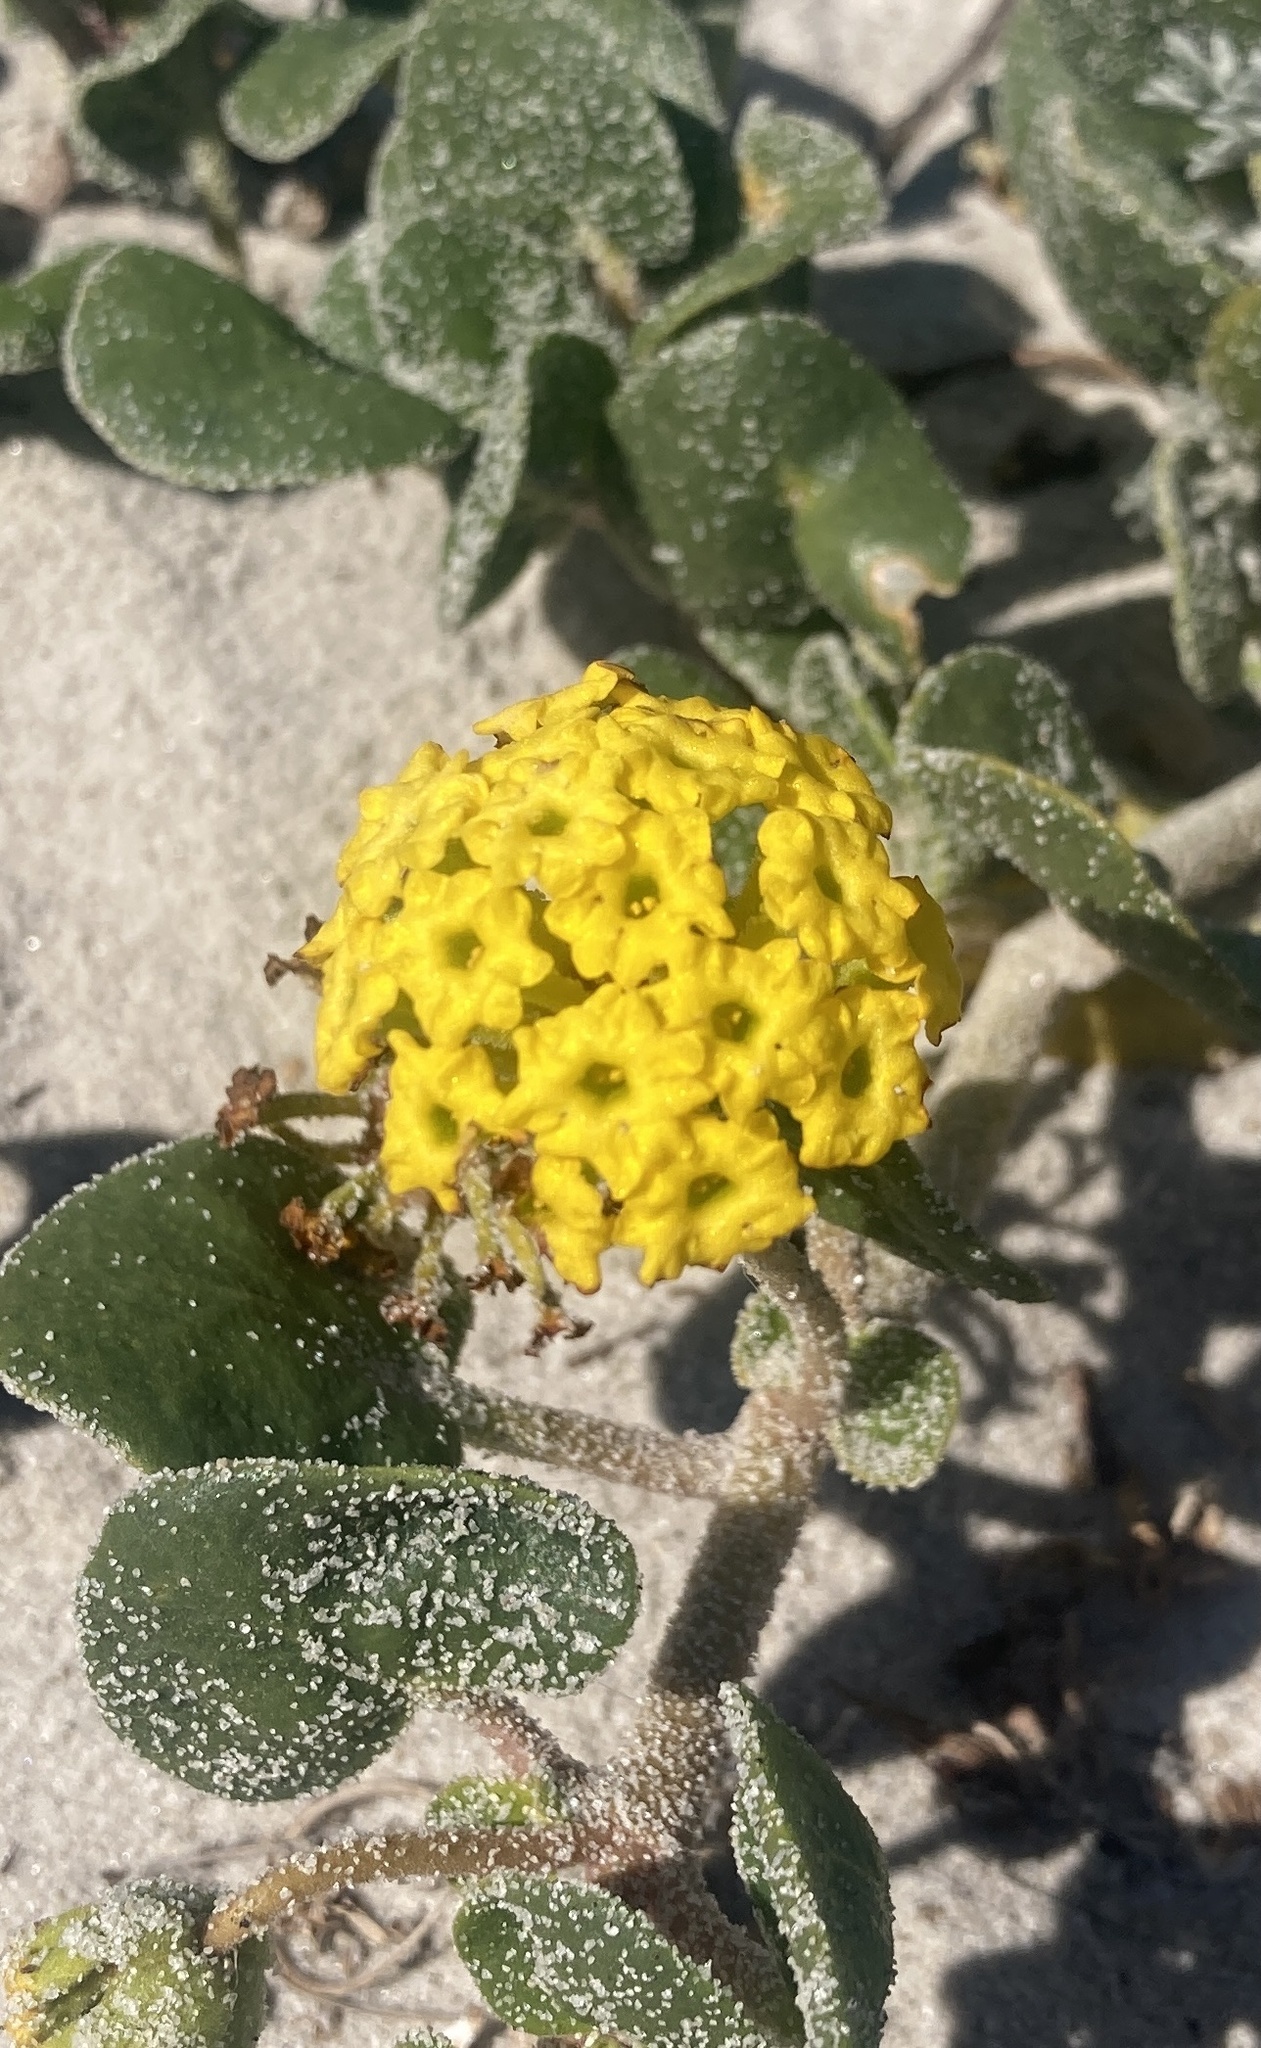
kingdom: Plantae
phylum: Tracheophyta
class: Magnoliopsida
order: Caryophyllales
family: Nyctaginaceae
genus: Abronia
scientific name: Abronia latifolia
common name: Yellow sand-verbena
